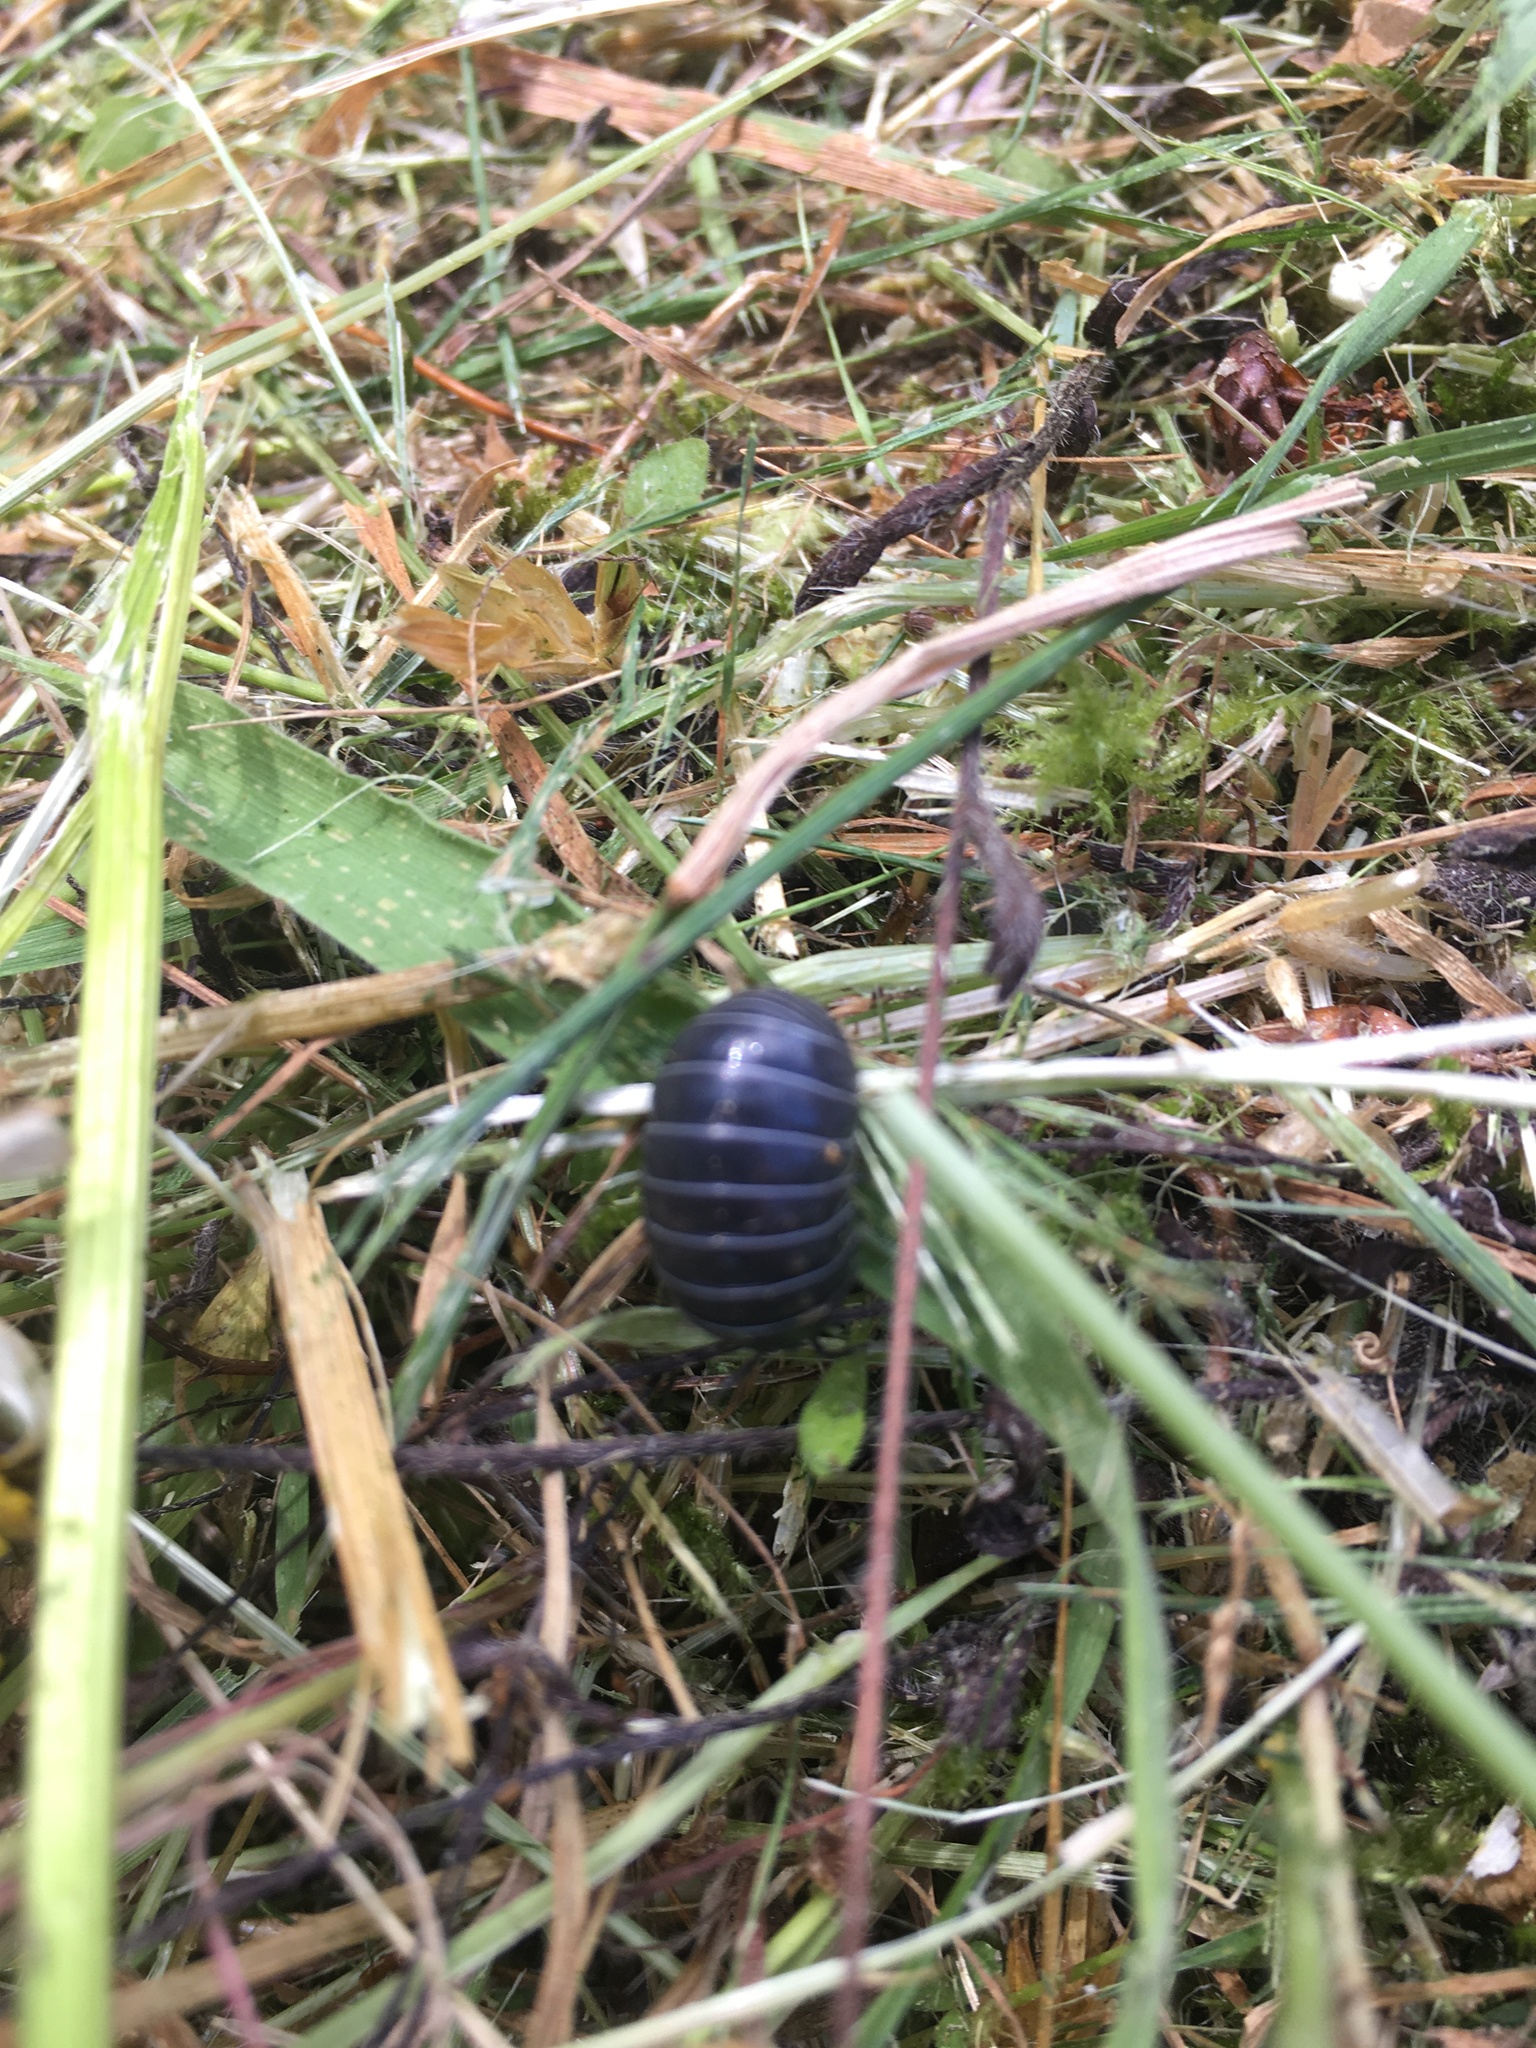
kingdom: Animalia
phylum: Arthropoda
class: Malacostraca
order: Isopoda
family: Armadillidiidae
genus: Armadillidium
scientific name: Armadillidium vulgare
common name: Common pill woodlouse
